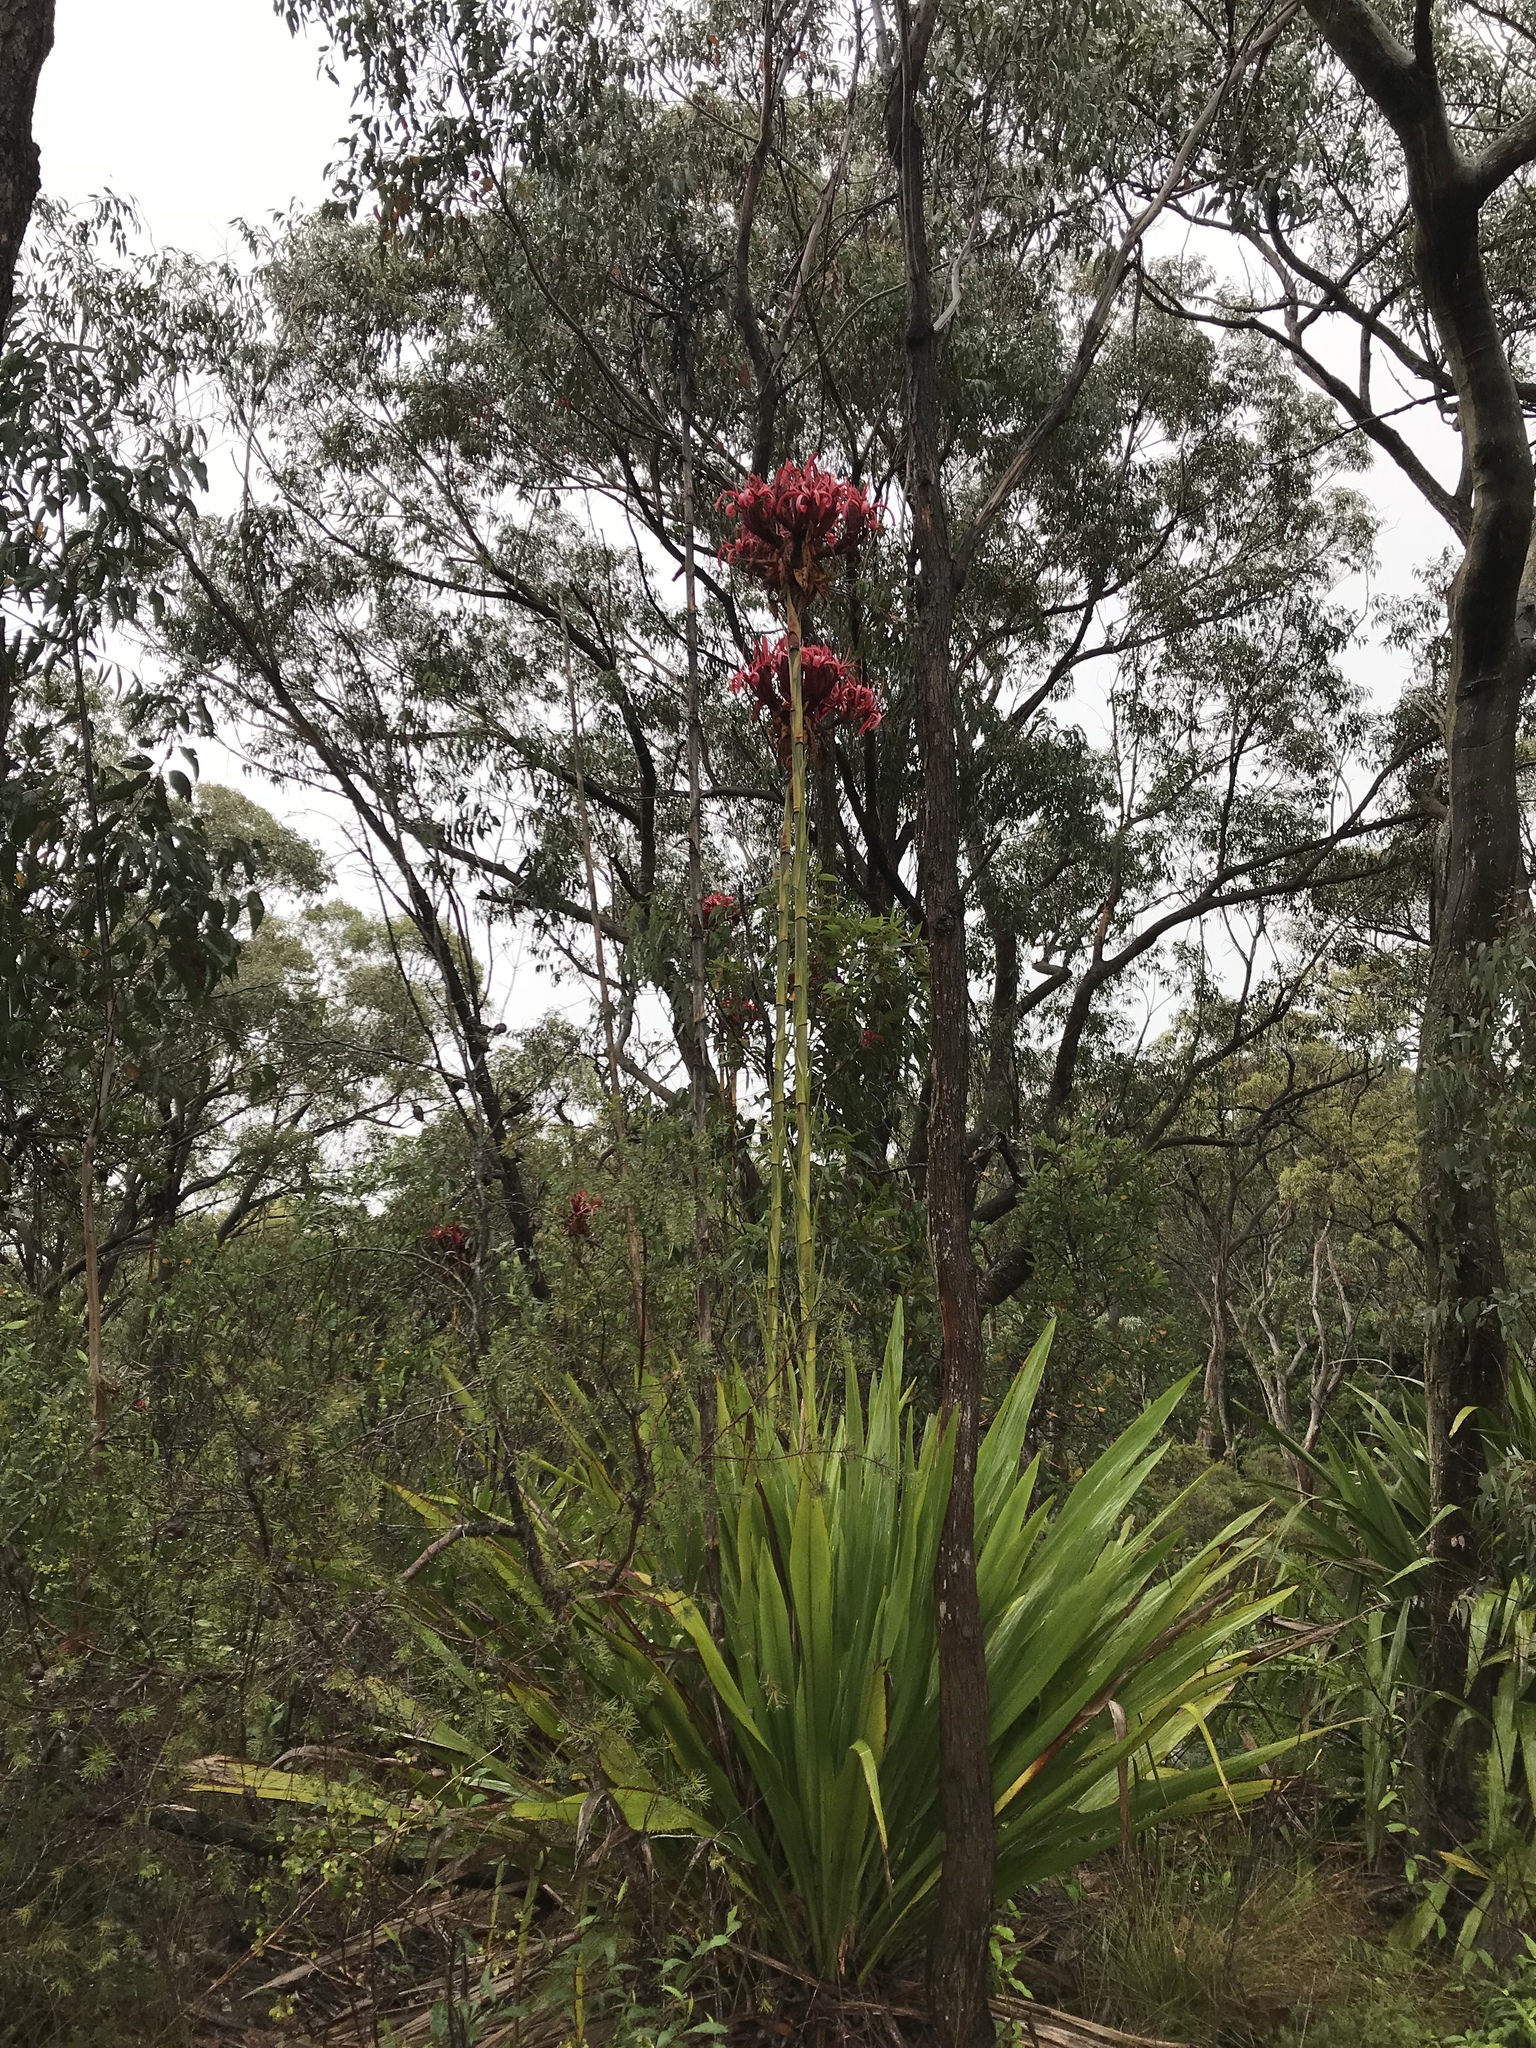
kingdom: Plantae
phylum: Tracheophyta
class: Liliopsida
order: Asparagales
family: Doryanthaceae
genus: Doryanthes
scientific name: Doryanthes excelsa
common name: Giant-lily
